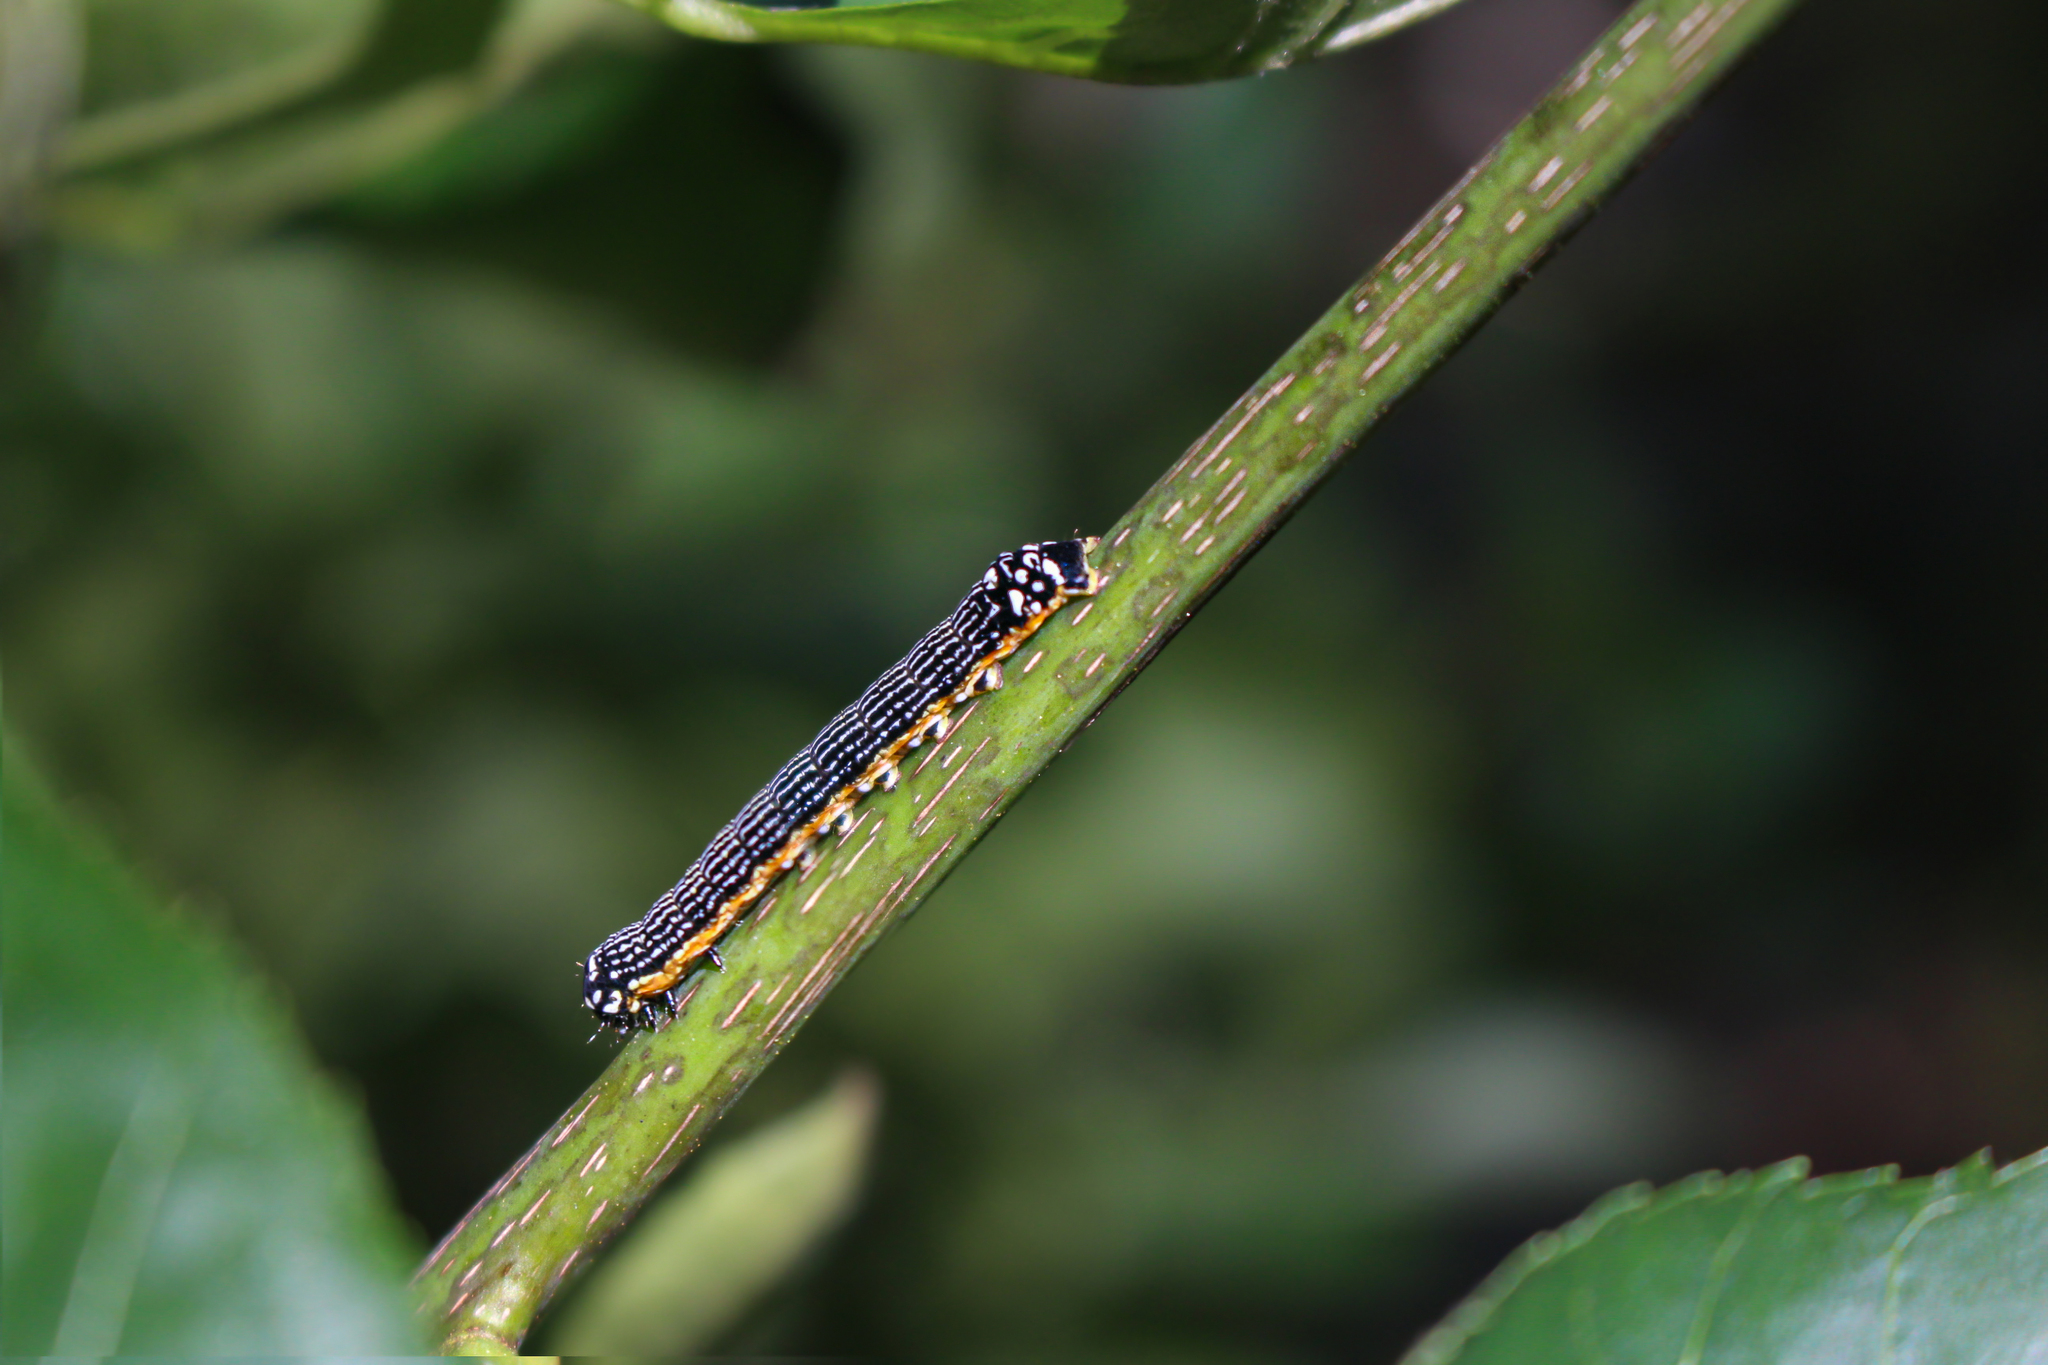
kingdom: Animalia
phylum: Arthropoda
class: Insecta
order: Lepidoptera
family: Noctuidae
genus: Phosphila
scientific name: Phosphila turbulenta
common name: Turbulent phosphila moth
